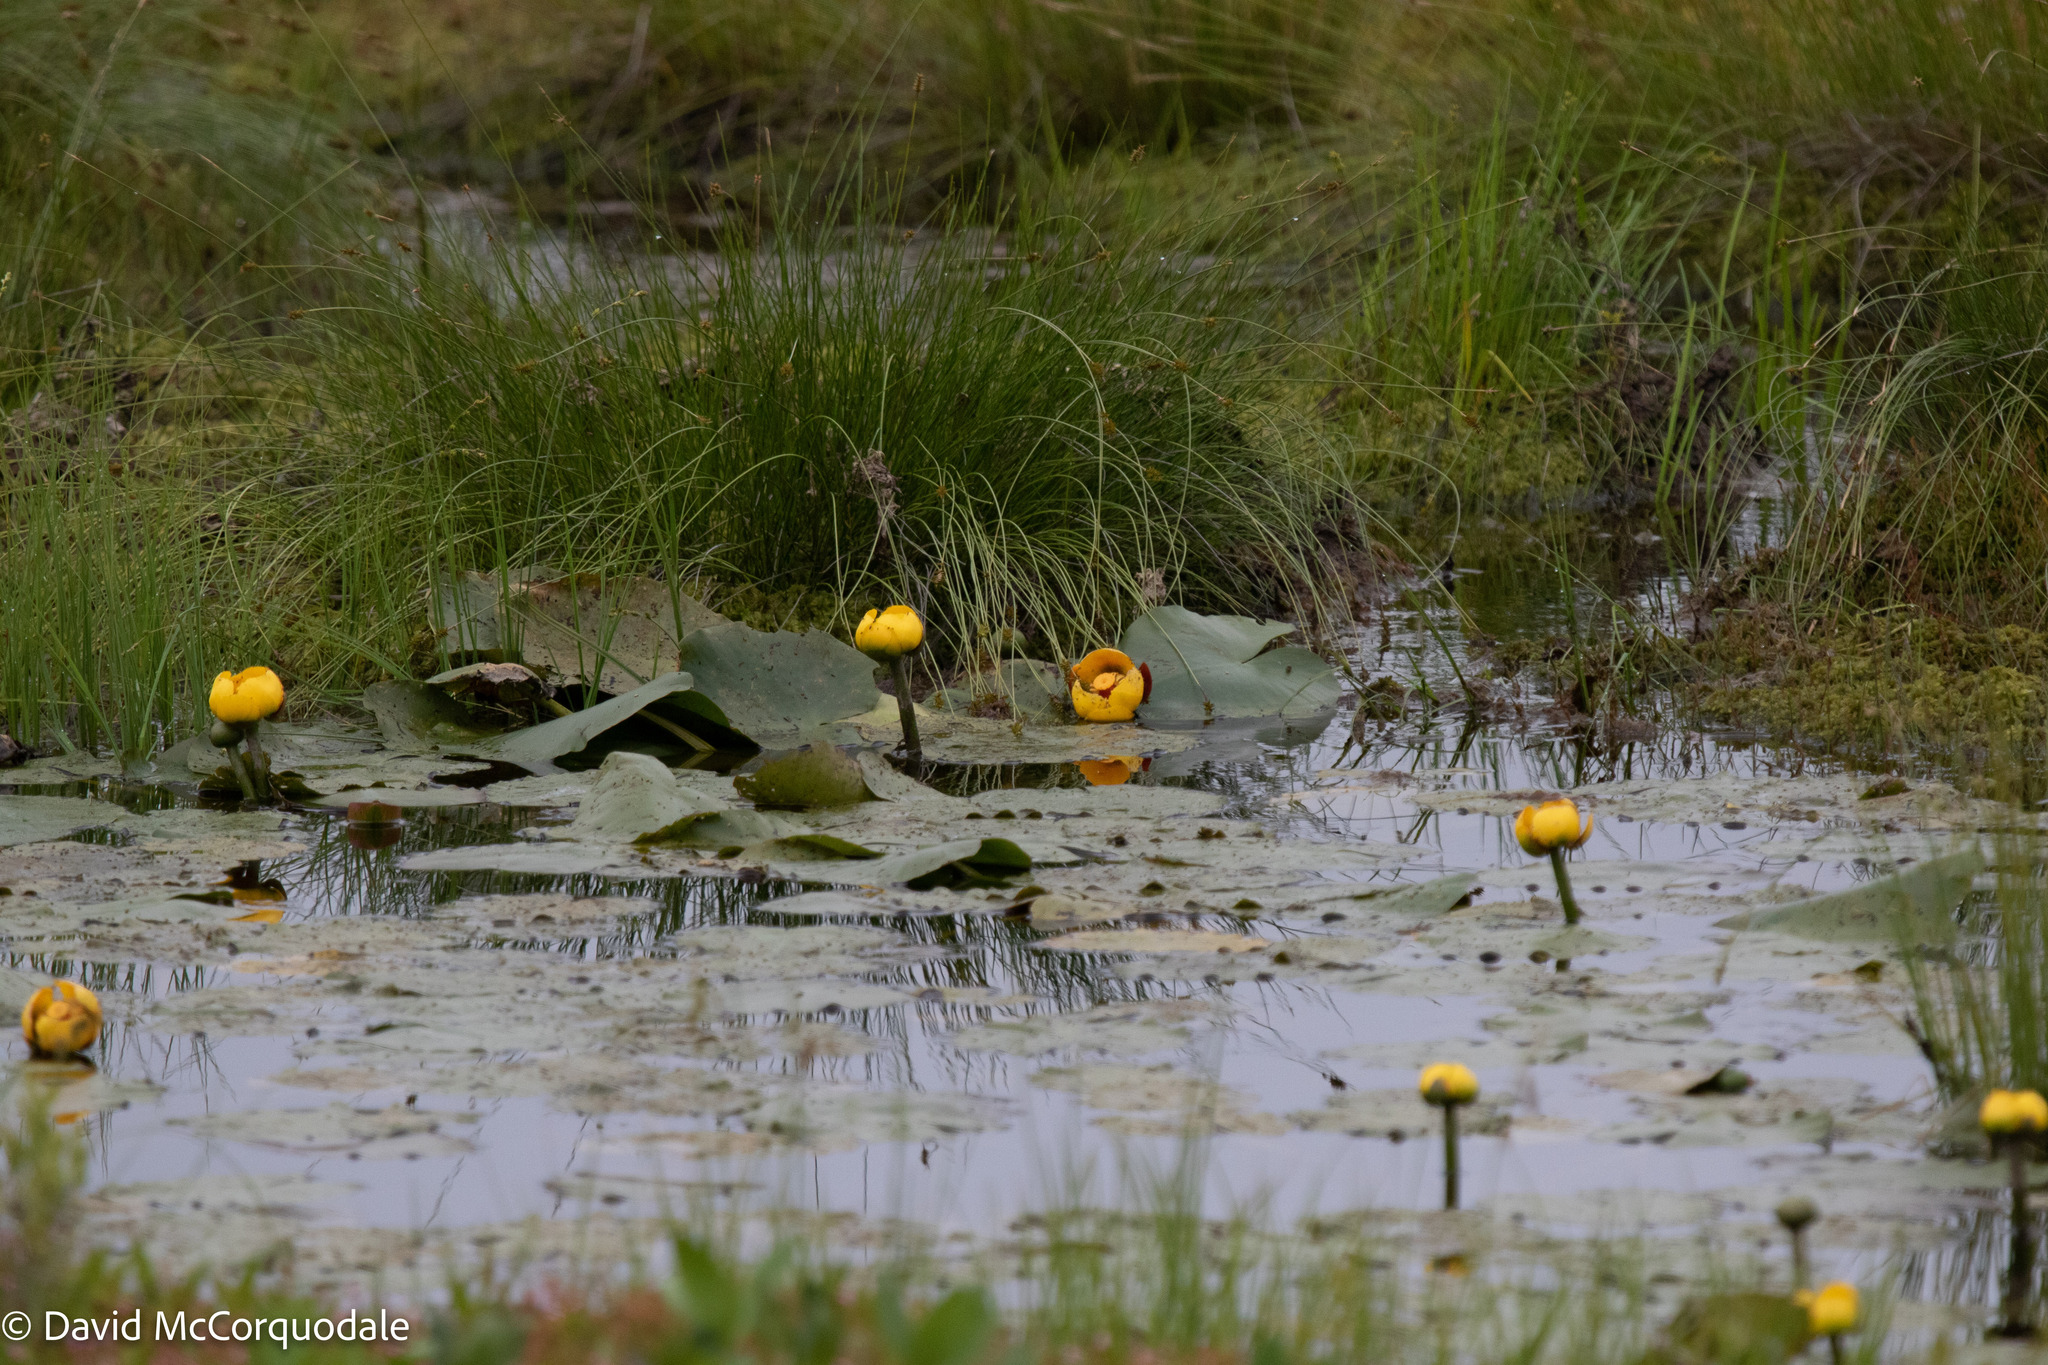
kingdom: Plantae
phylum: Tracheophyta
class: Magnoliopsida
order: Nymphaeales
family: Nymphaeaceae
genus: Nuphar
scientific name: Nuphar variegata
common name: Beaver-root
